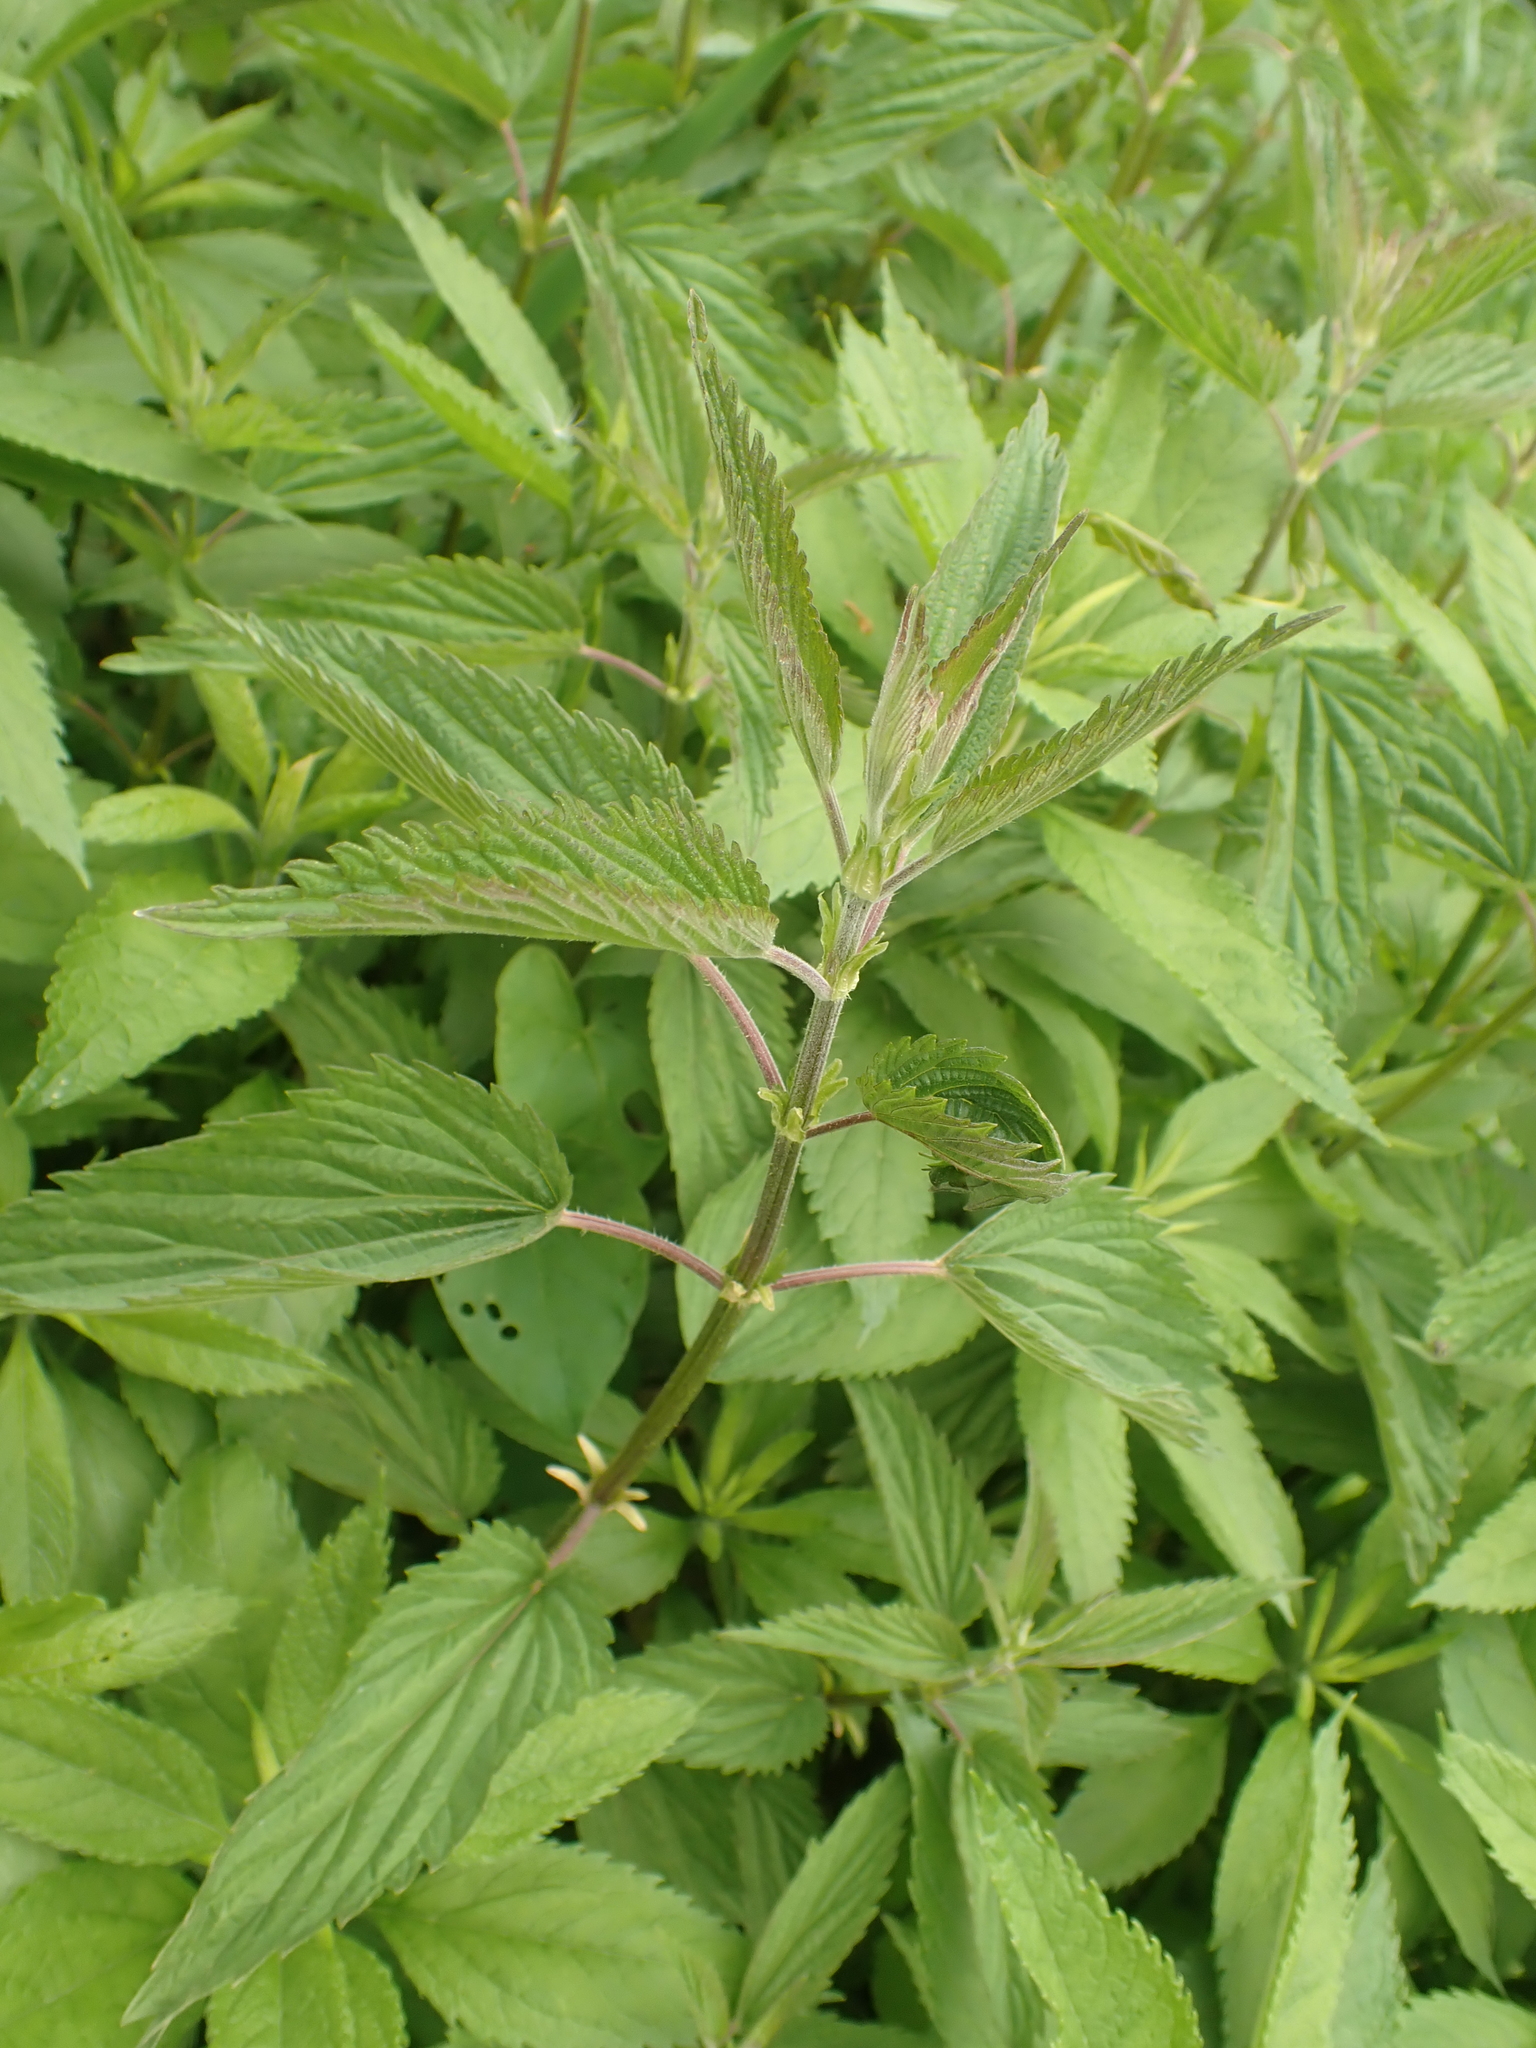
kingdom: Plantae
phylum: Tracheophyta
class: Magnoliopsida
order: Rosales
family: Urticaceae
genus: Urtica
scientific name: Urtica dioica
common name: Common nettle
